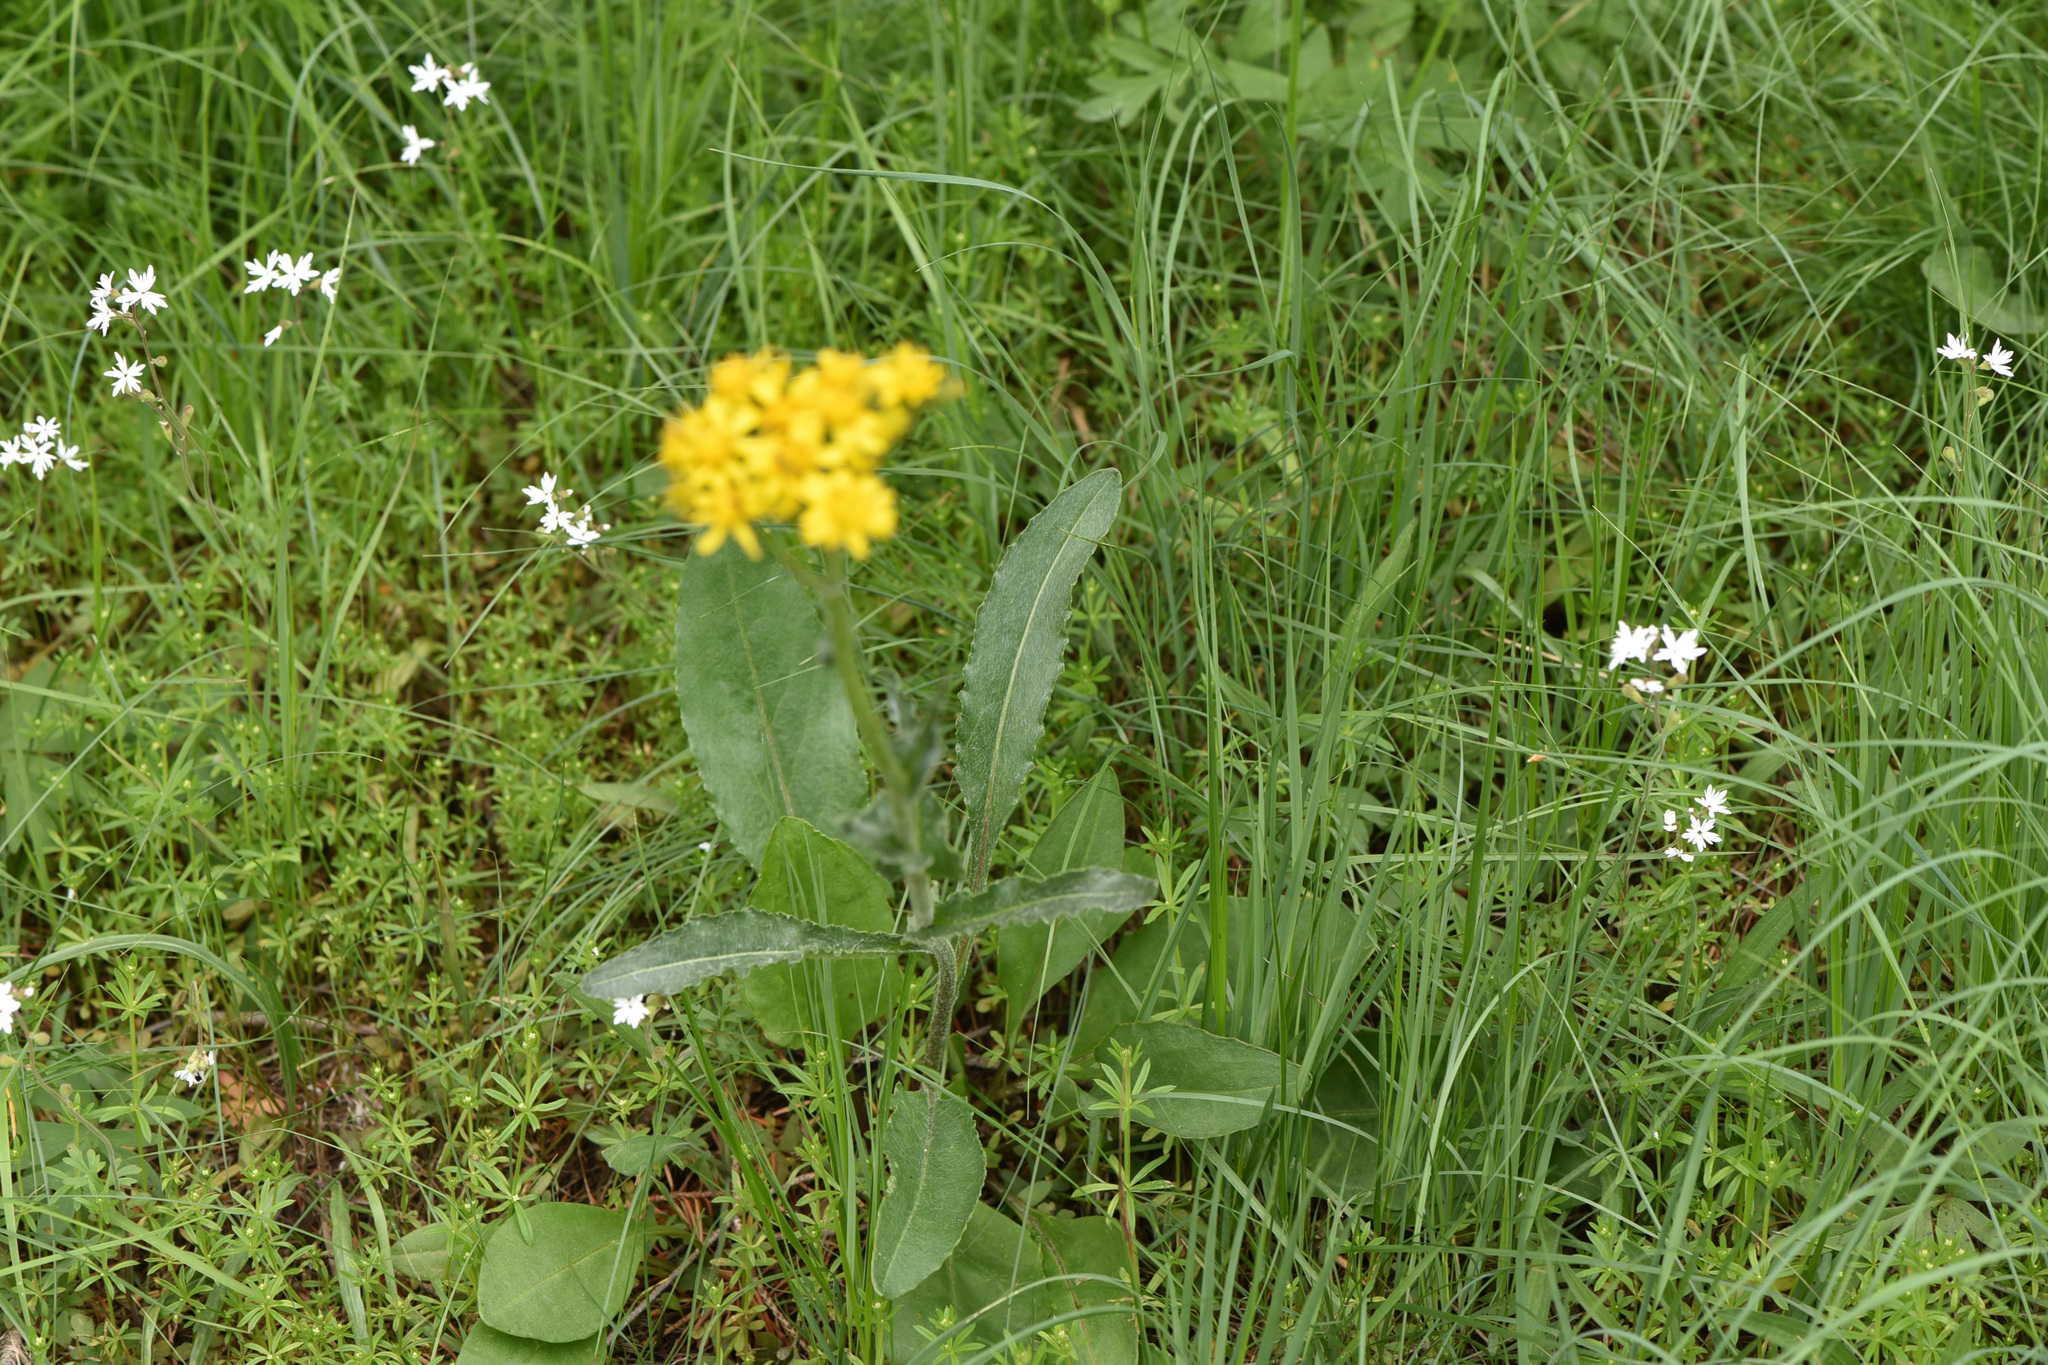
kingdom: Plantae
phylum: Tracheophyta
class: Magnoliopsida
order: Asterales
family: Asteraceae
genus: Senecio
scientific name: Senecio integerrimus
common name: Gaugeplant
